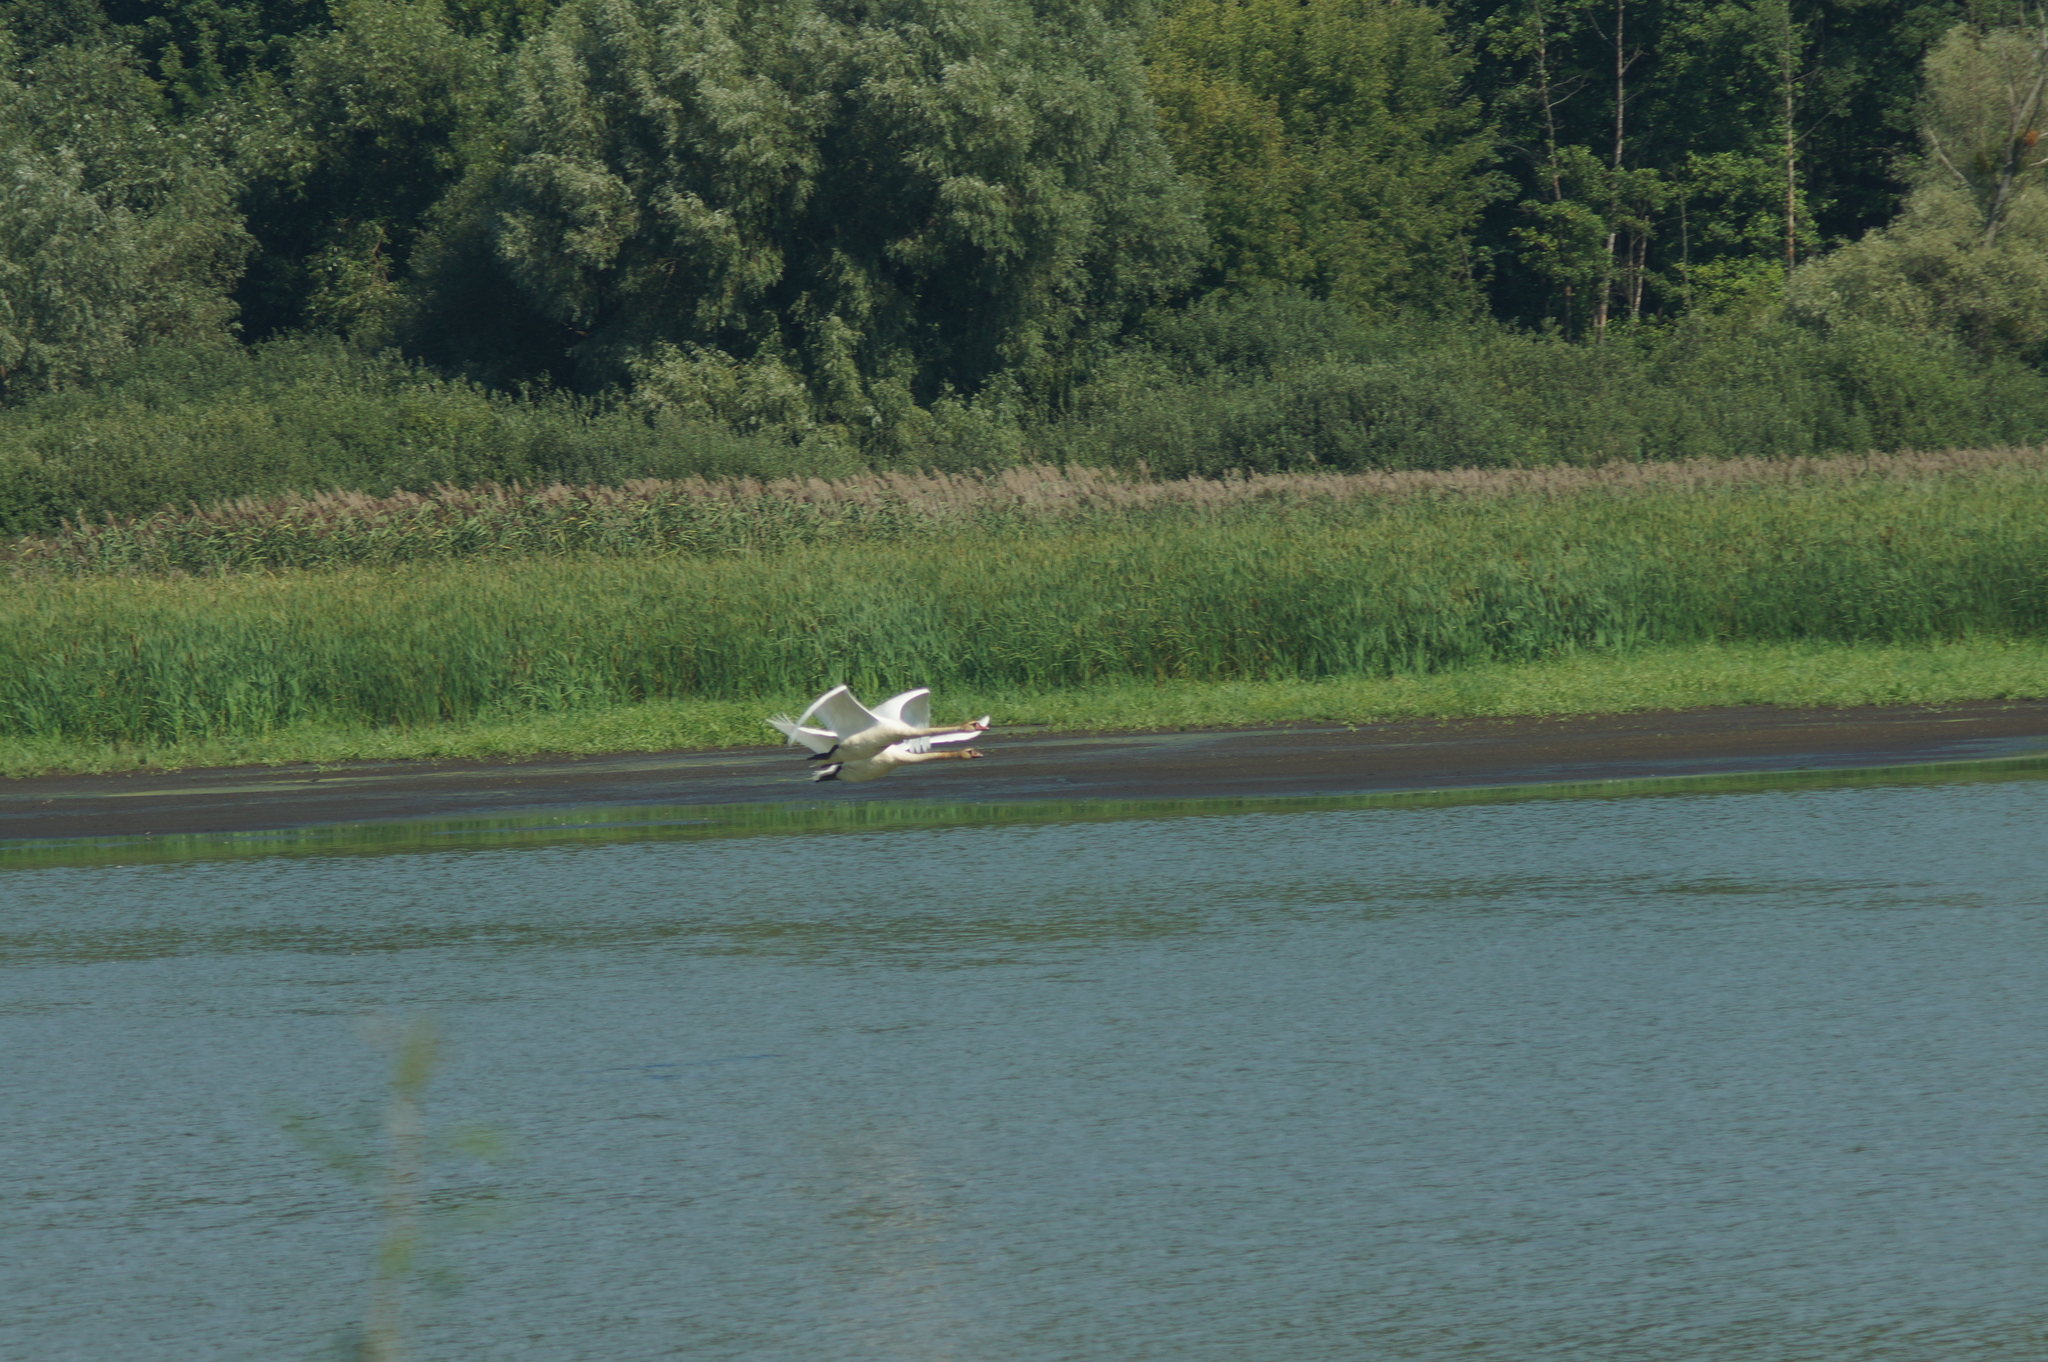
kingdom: Animalia
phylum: Chordata
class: Aves
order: Anseriformes
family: Anatidae
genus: Cygnus
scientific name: Cygnus olor
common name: Mute swan
